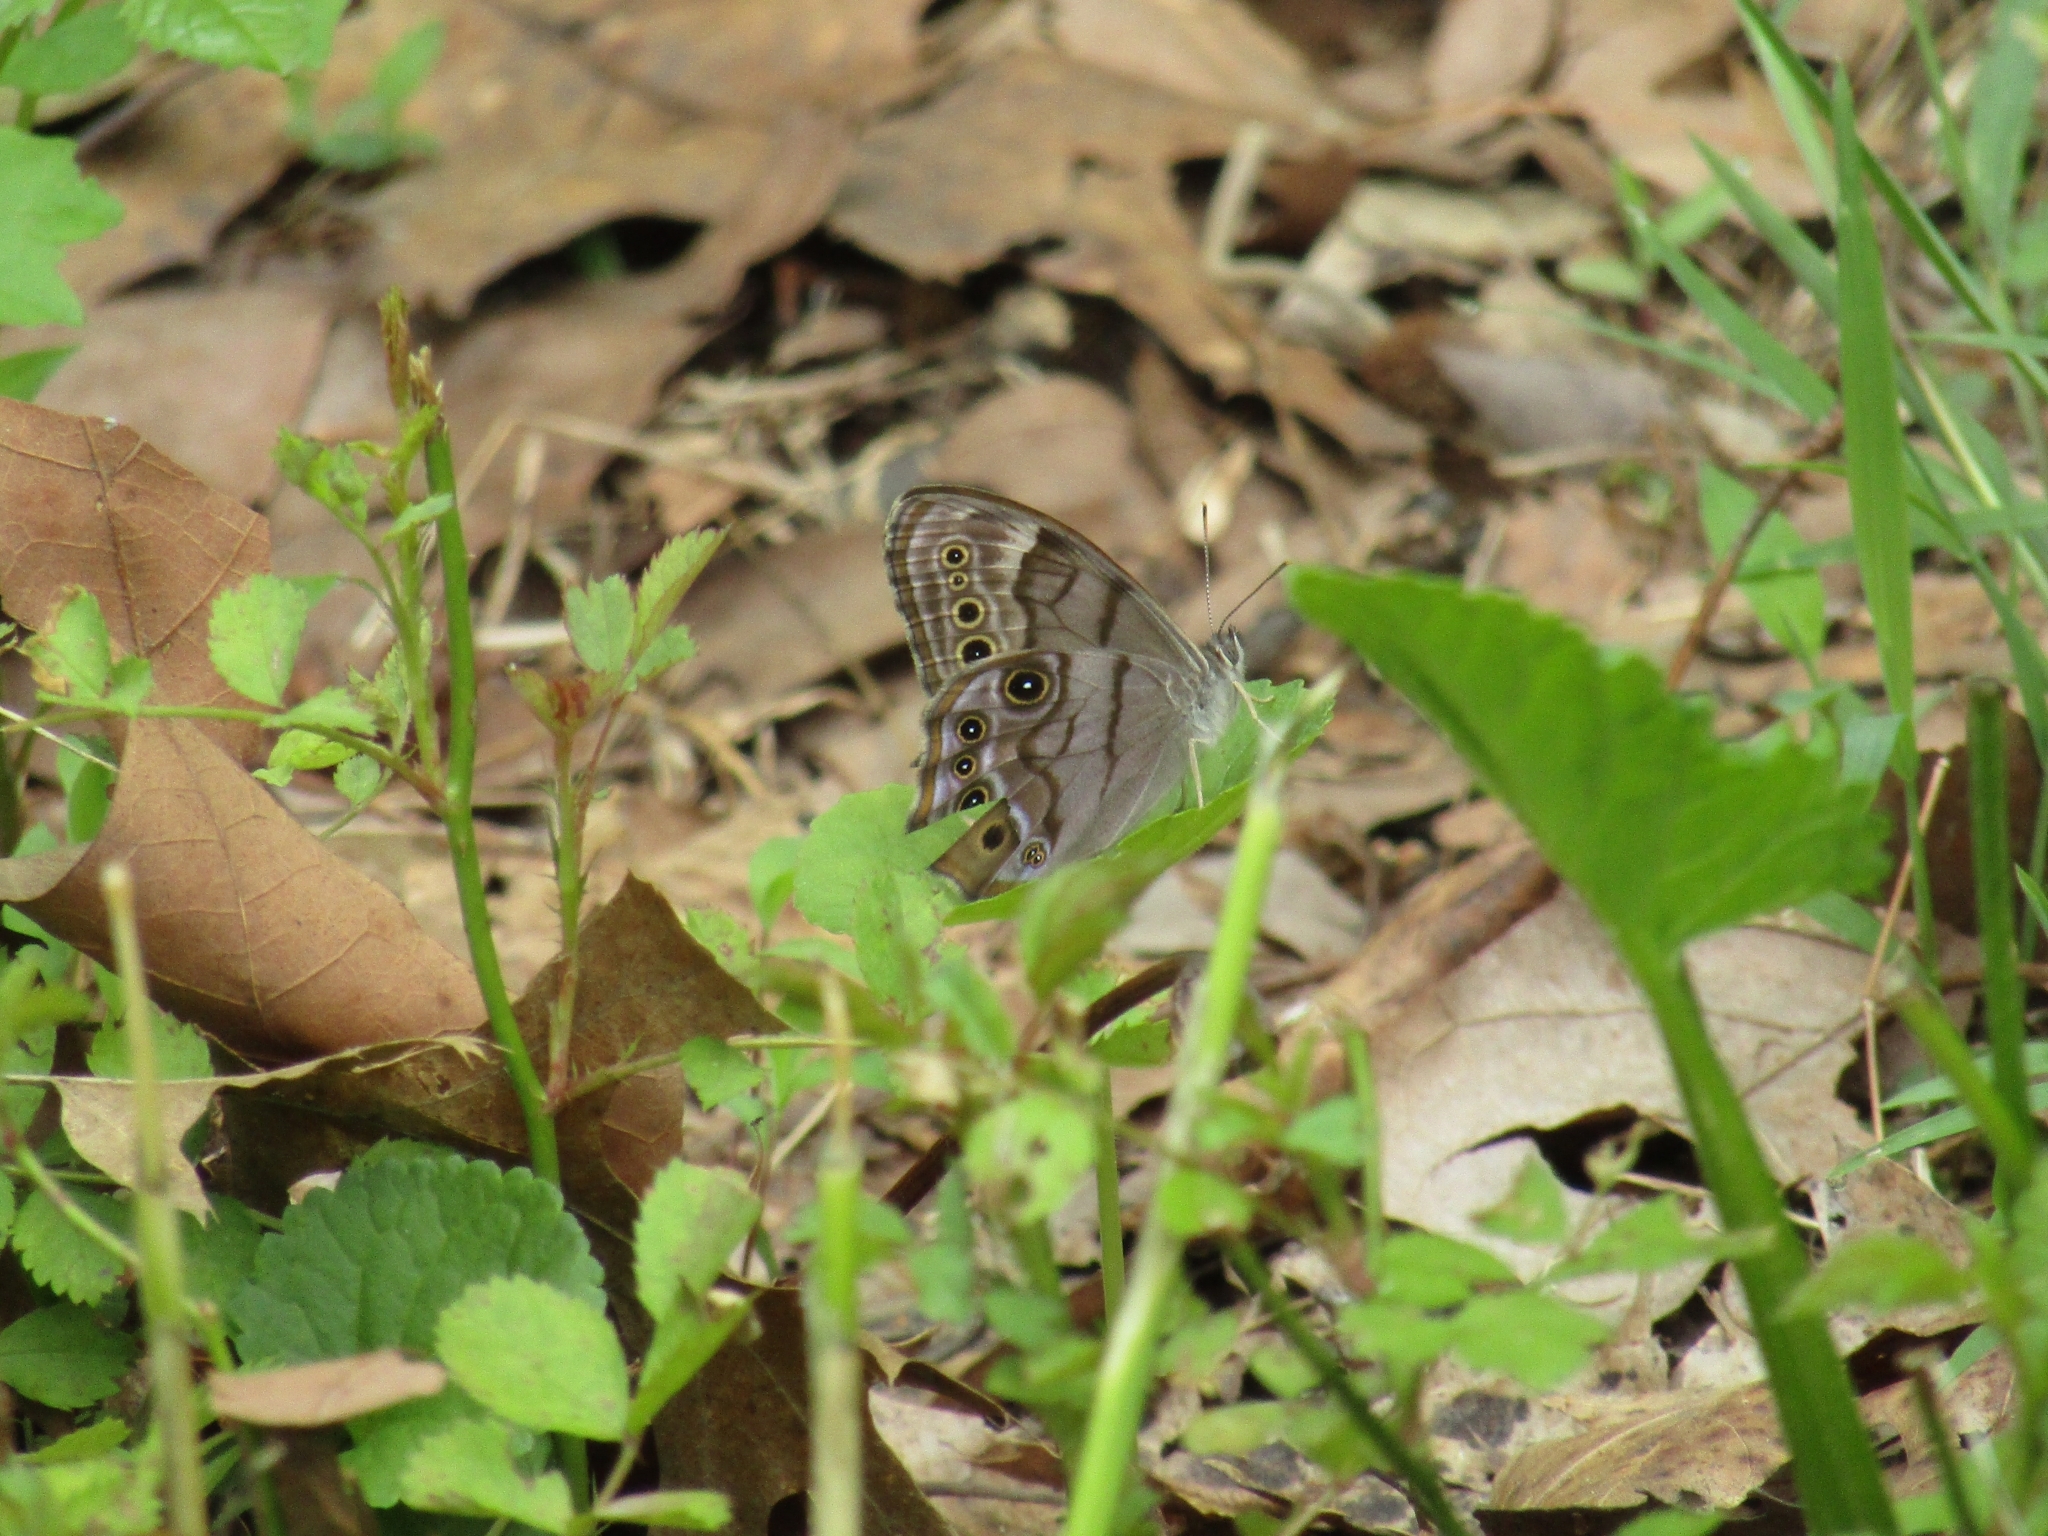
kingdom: Animalia
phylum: Arthropoda
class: Insecta
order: Lepidoptera
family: Nymphalidae
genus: Lethe
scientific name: Lethe anthedon
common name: Northern pearly-eye
